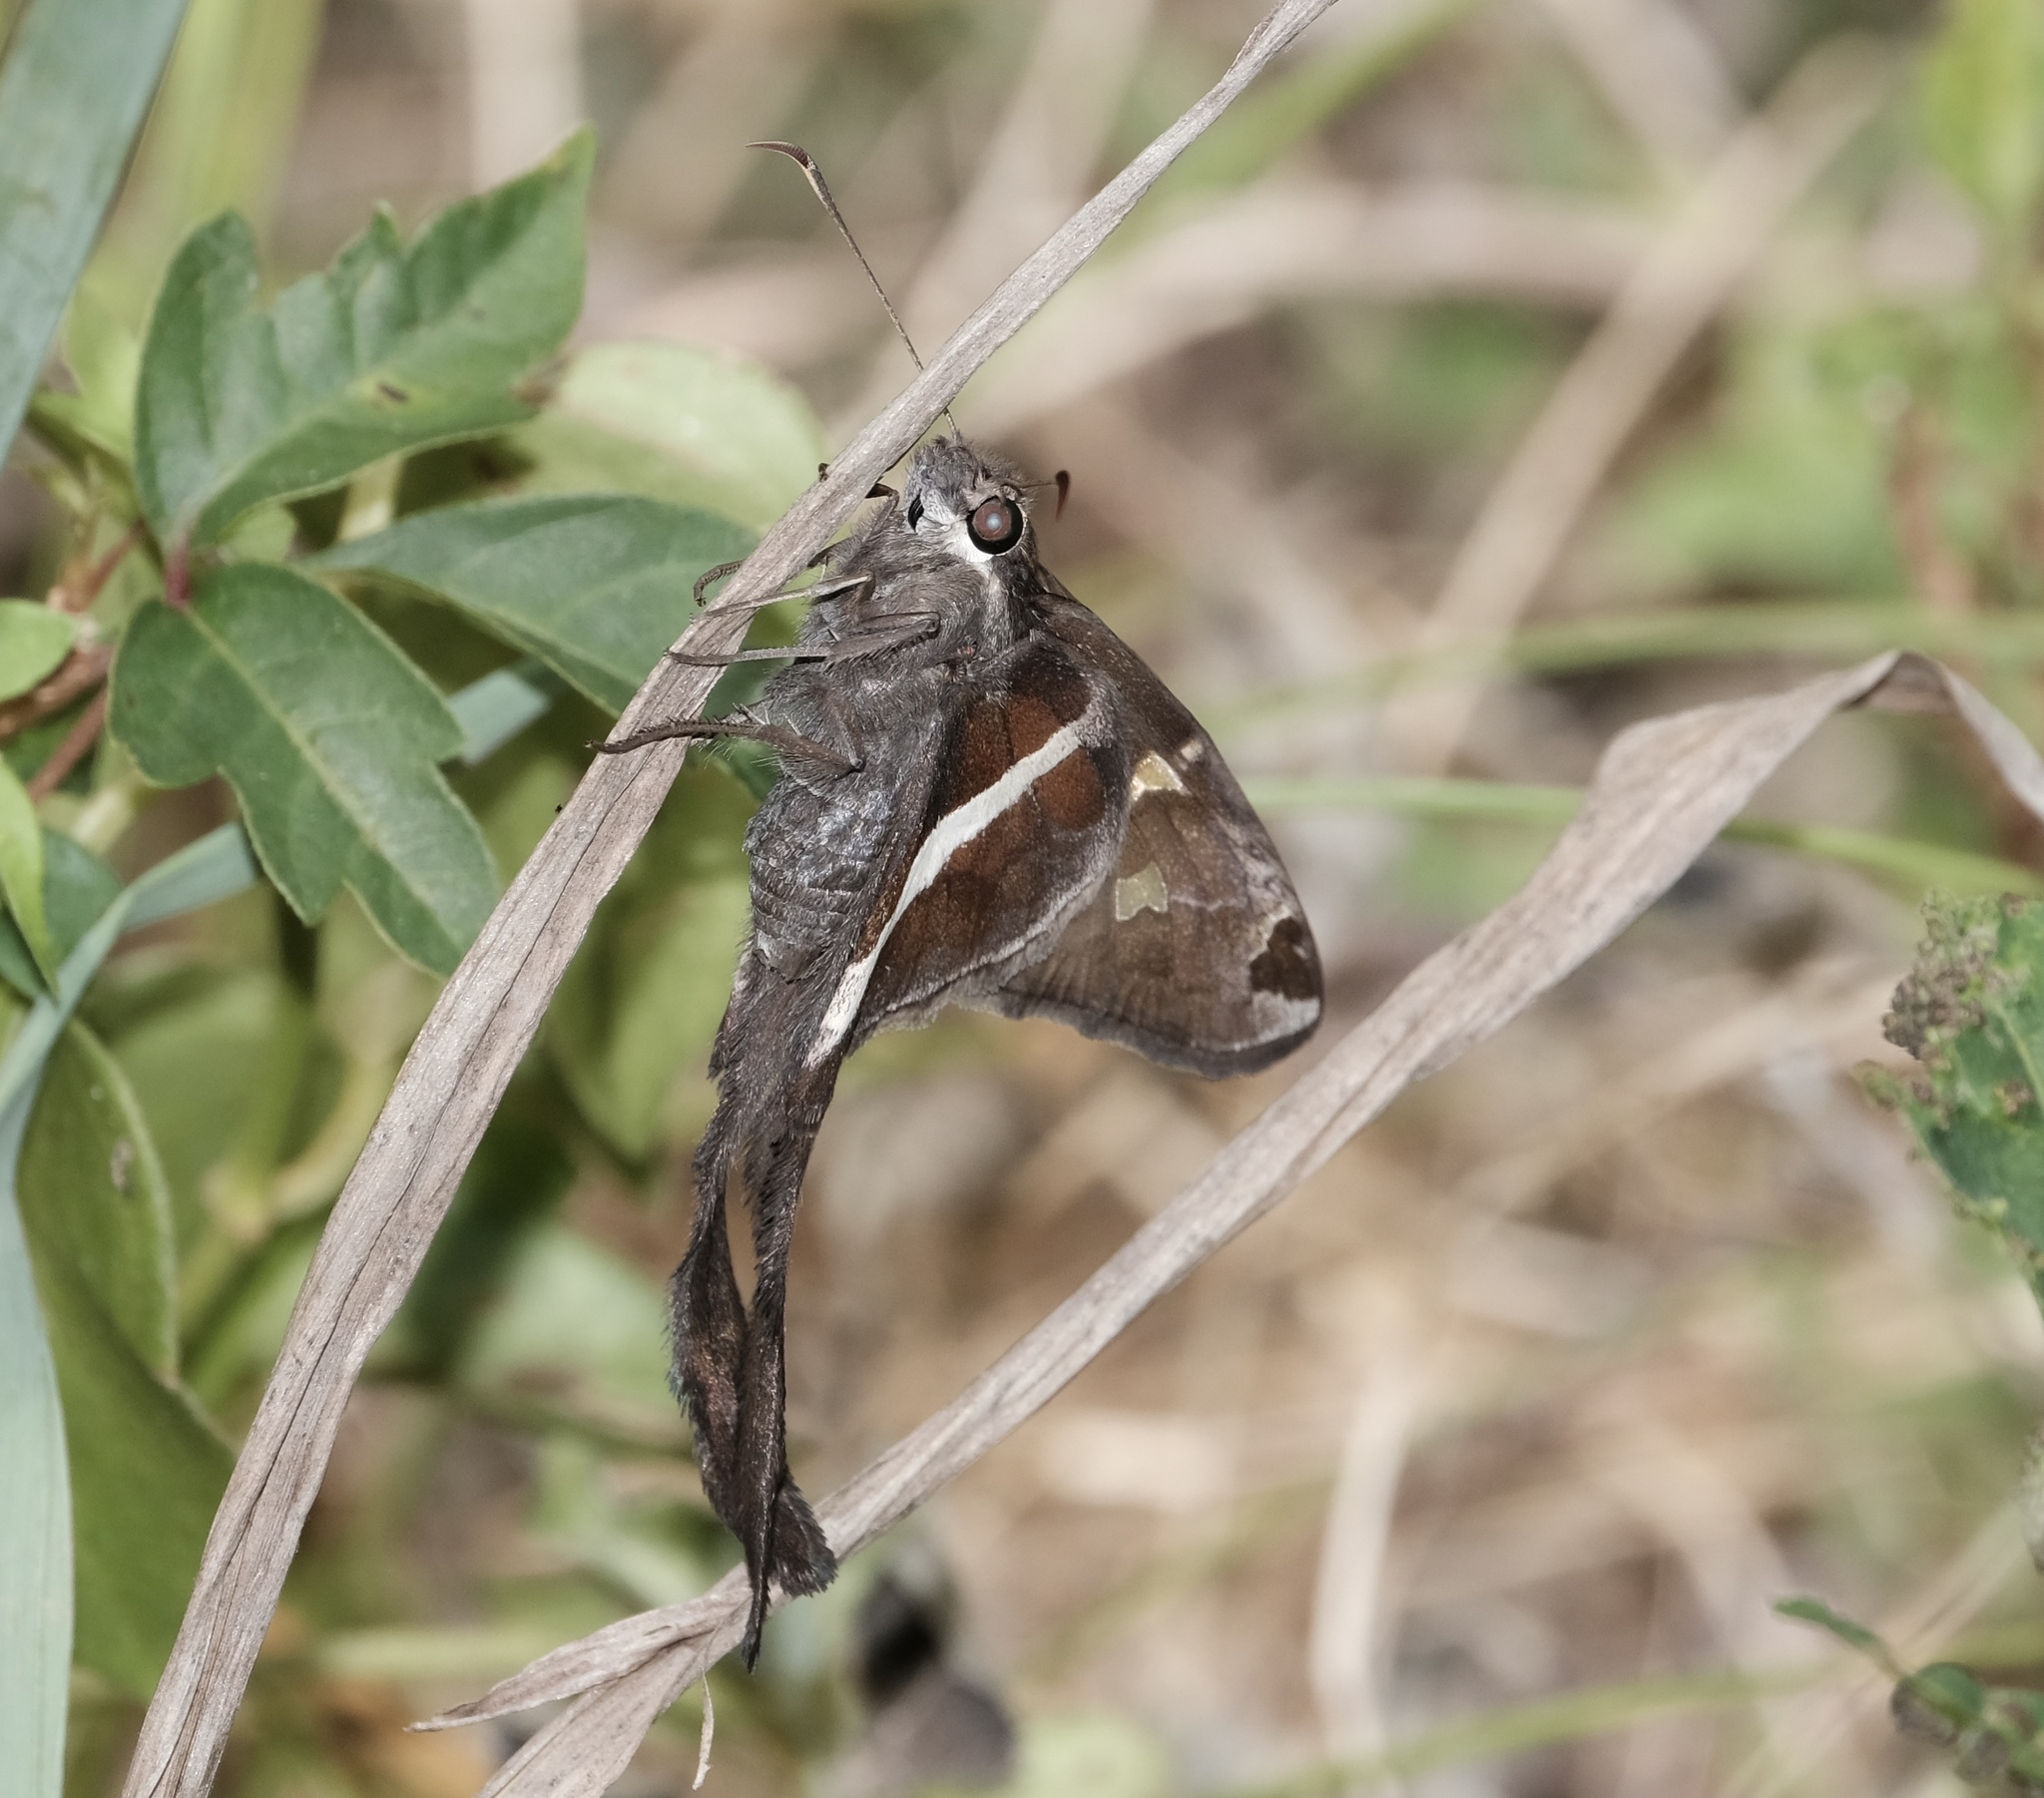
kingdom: Animalia
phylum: Arthropoda
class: Insecta
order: Lepidoptera
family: Hesperiidae
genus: Chioides
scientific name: Chioides catillus
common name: Silverbanded skipper
